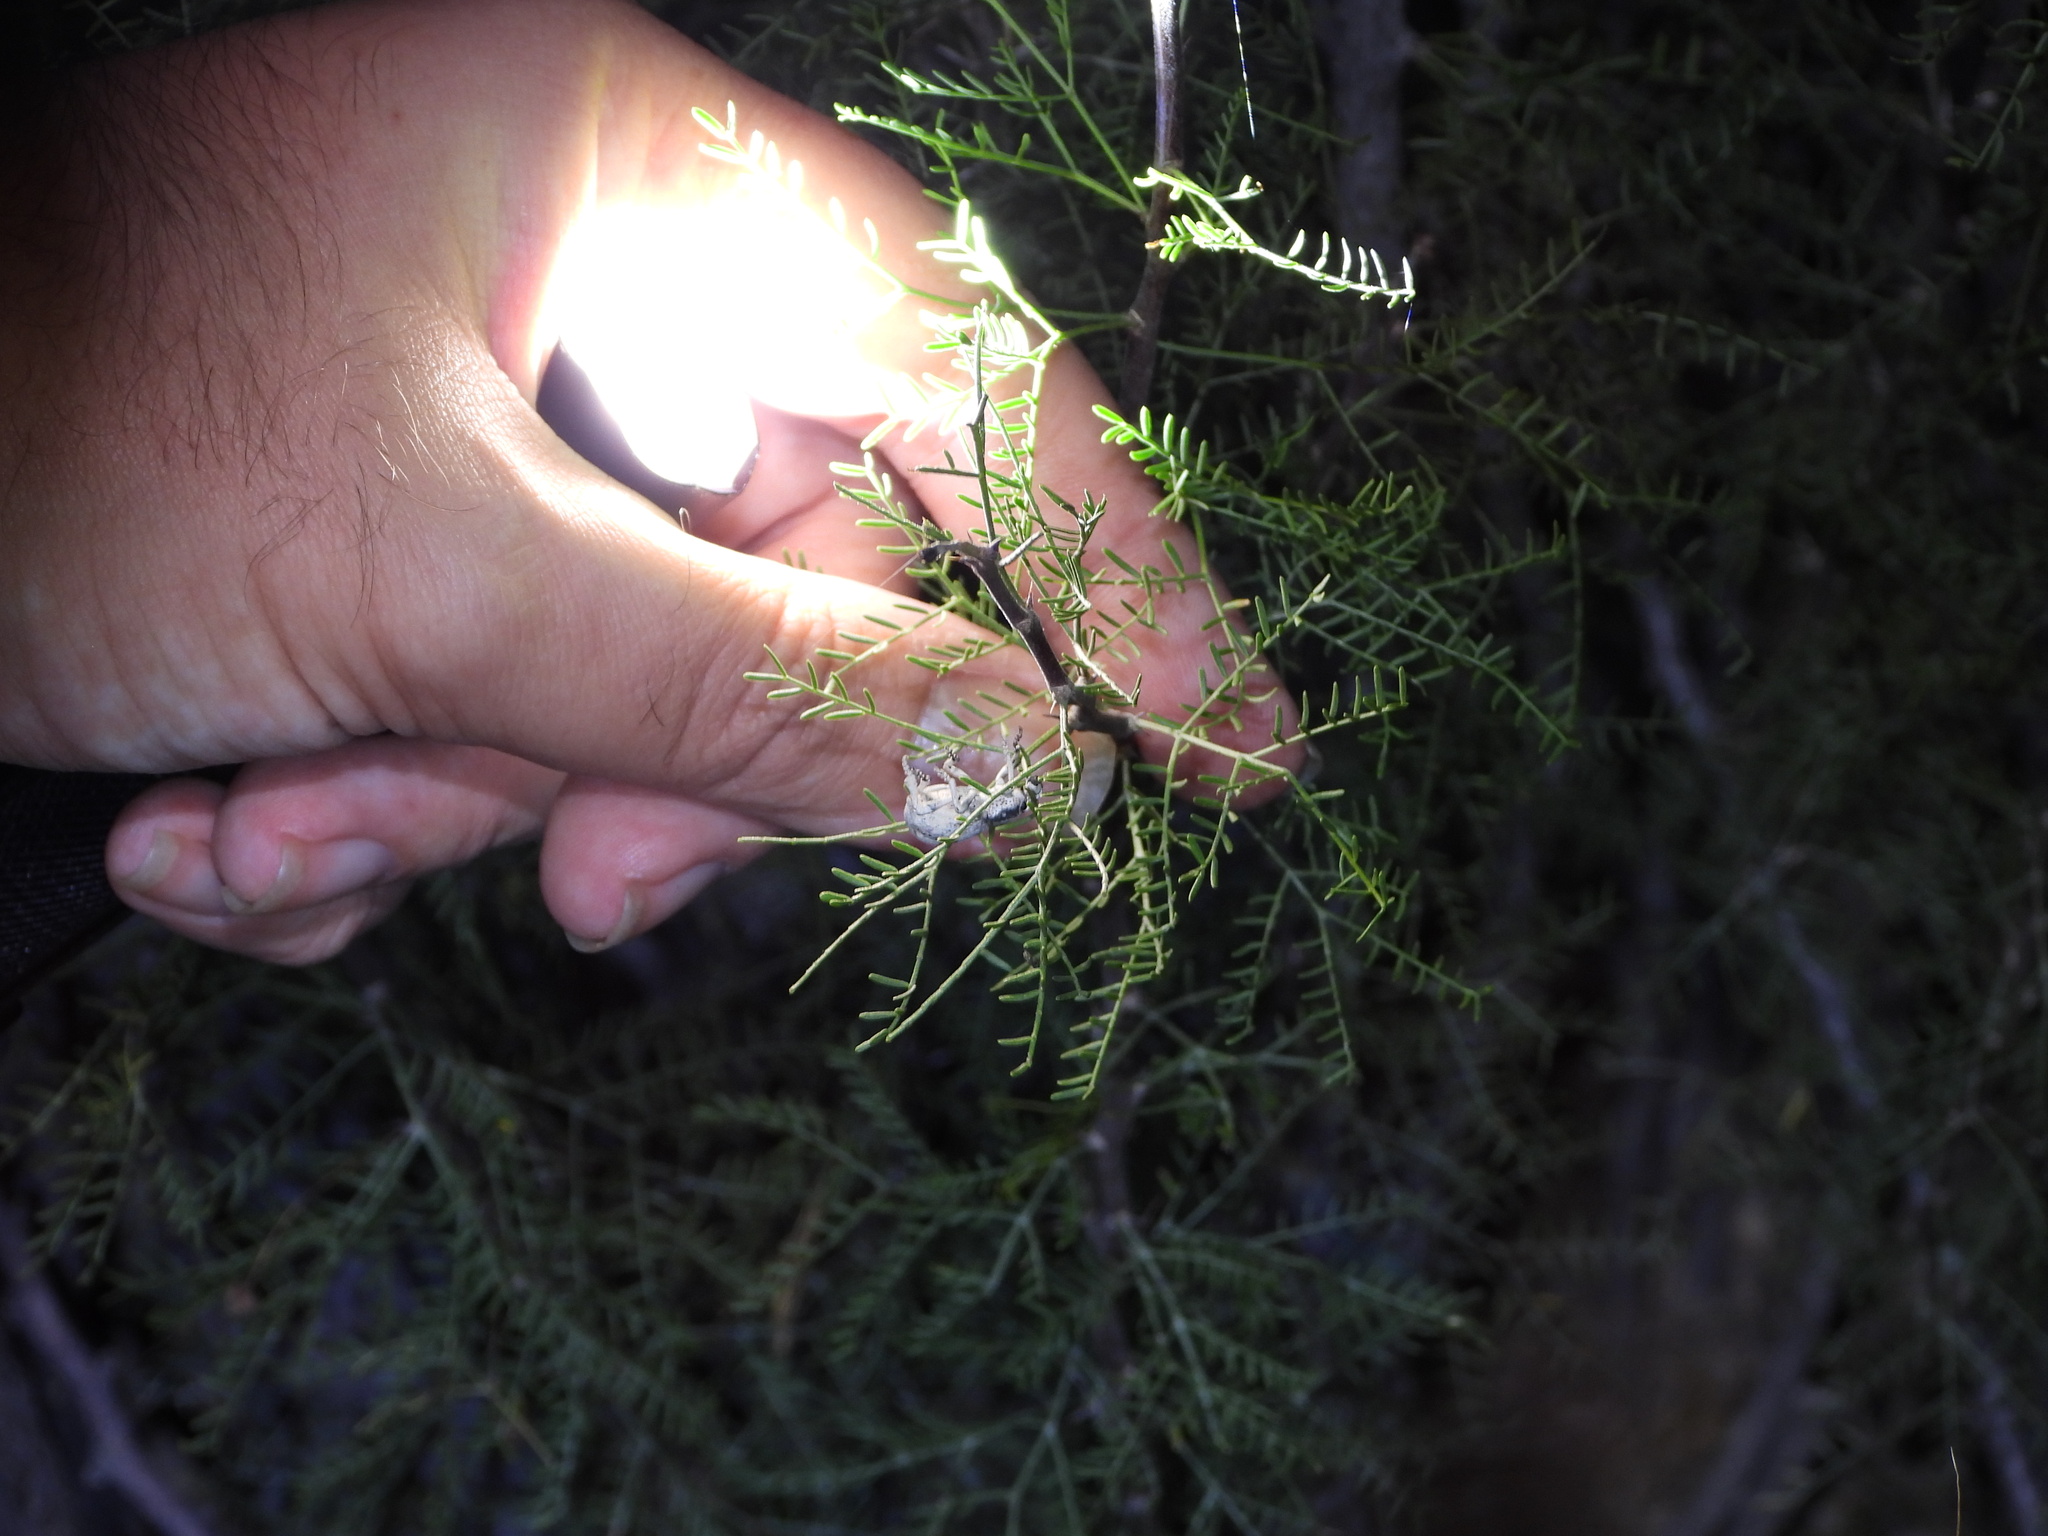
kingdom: Plantae
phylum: Tracheophyta
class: Magnoliopsida
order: Fabales
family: Fabaceae
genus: Vachellia
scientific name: Vachellia schottii
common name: Schott acacia
